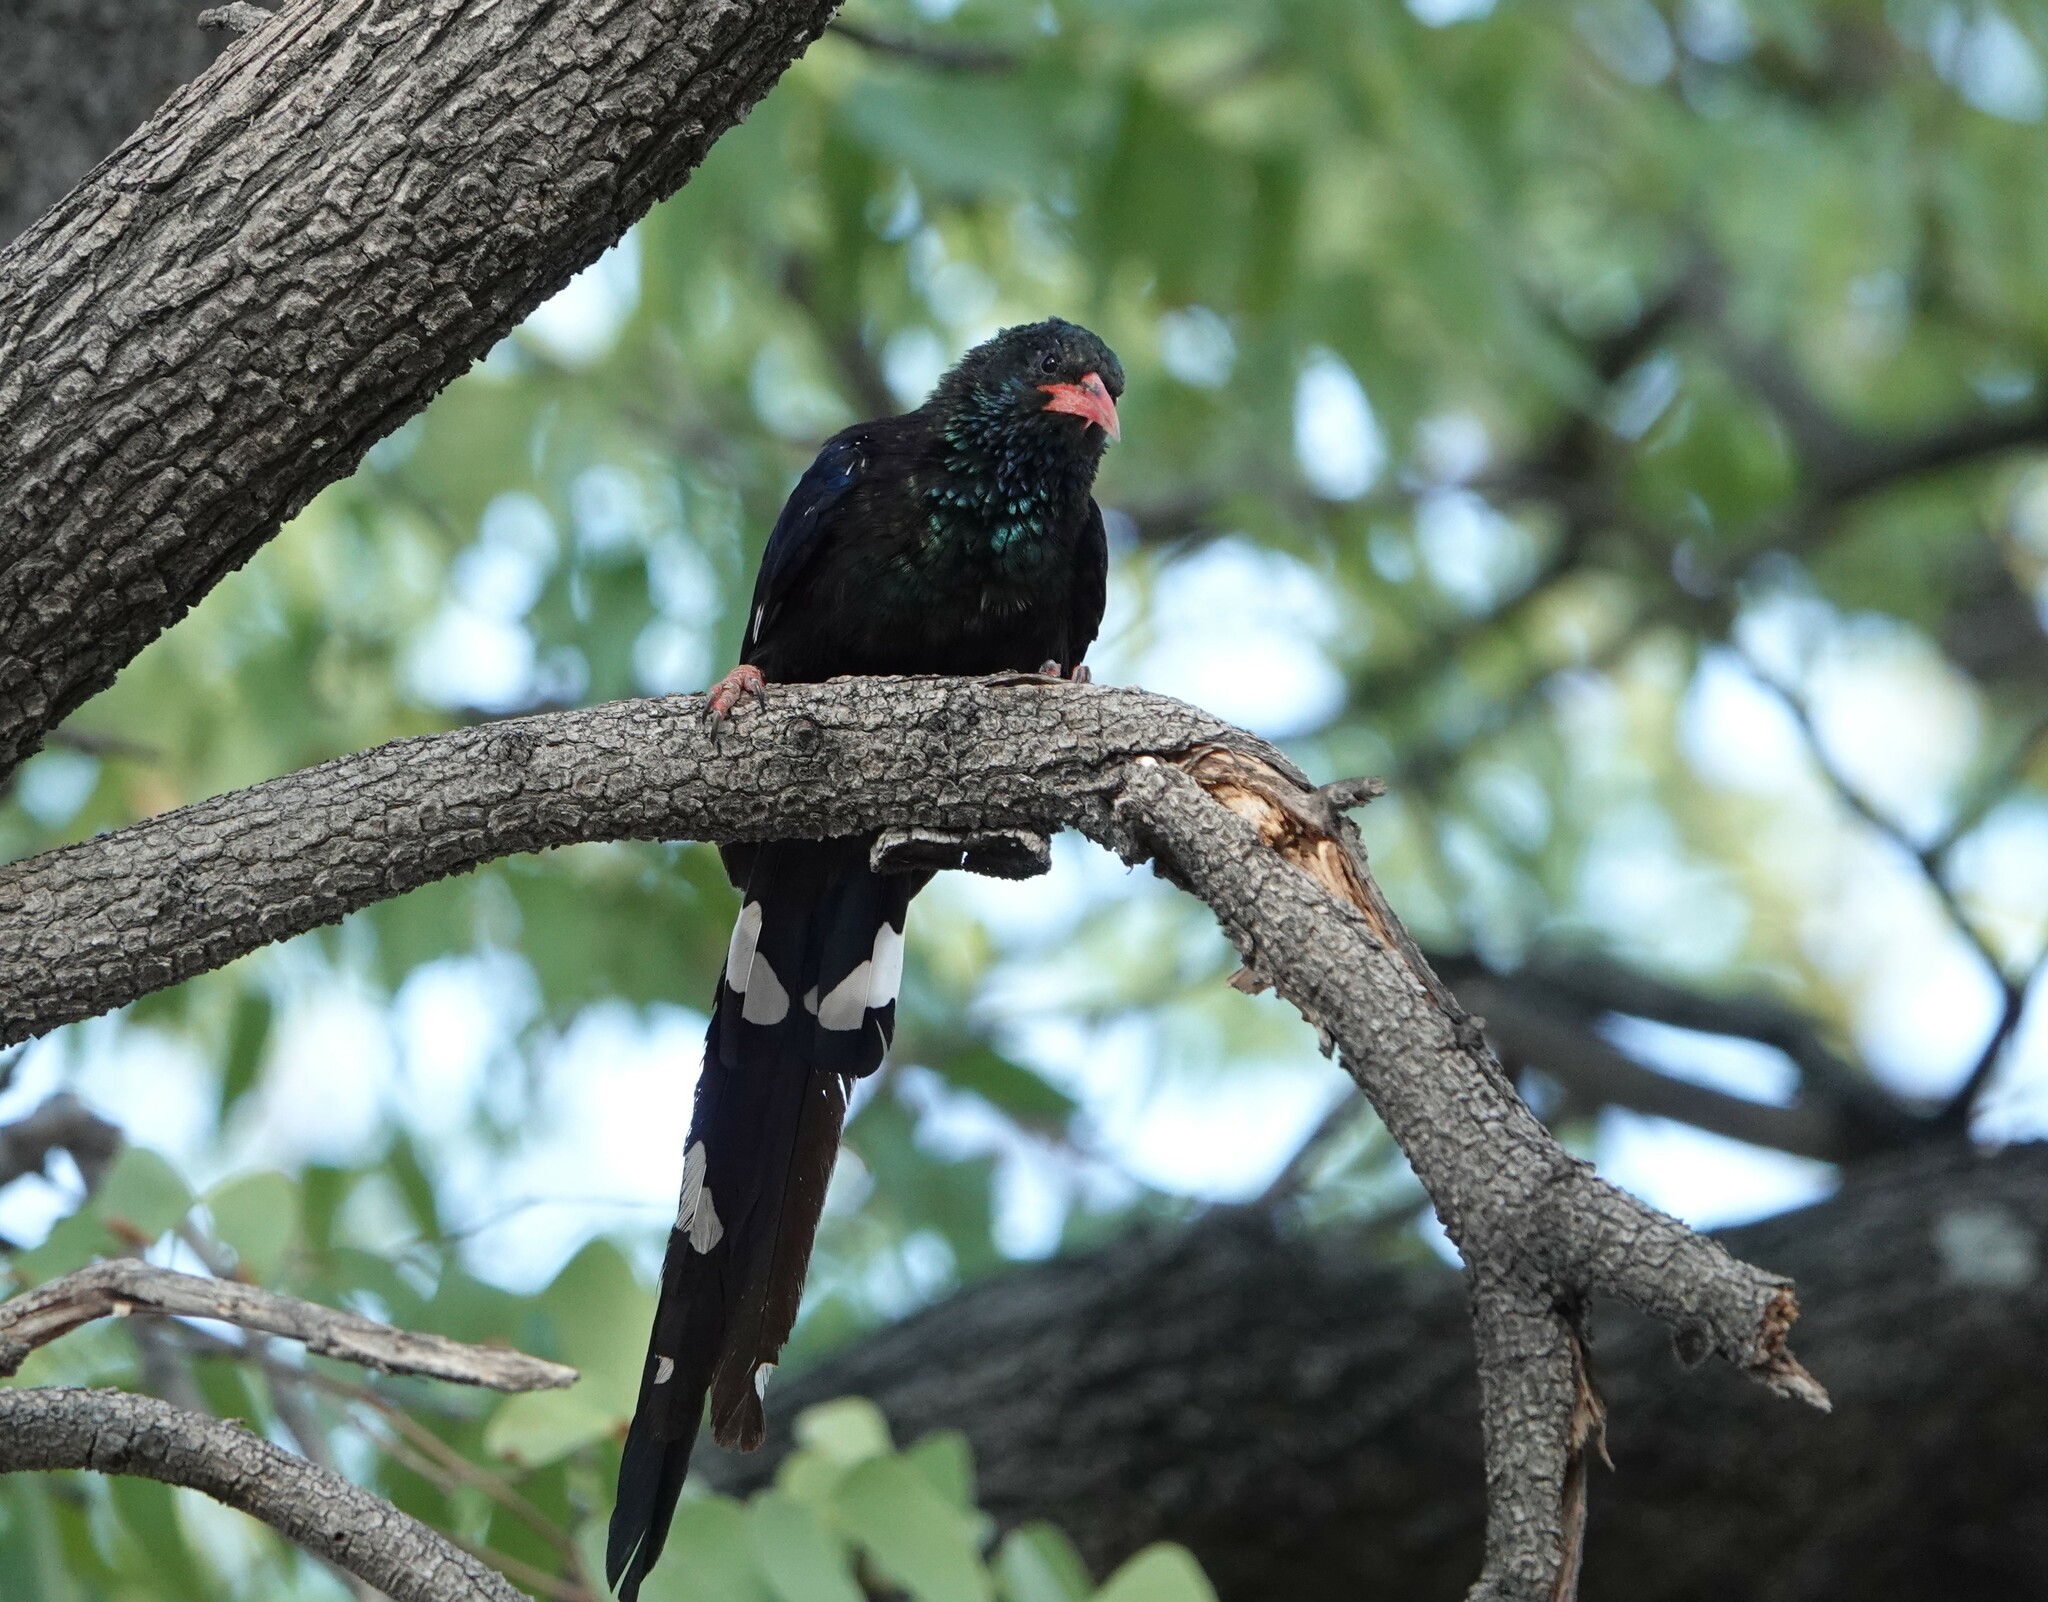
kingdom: Animalia
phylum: Chordata
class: Aves
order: Bucerotiformes
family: Phoeniculidae
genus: Phoeniculus
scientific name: Phoeniculus purpureus
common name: Green woodhoopoe
